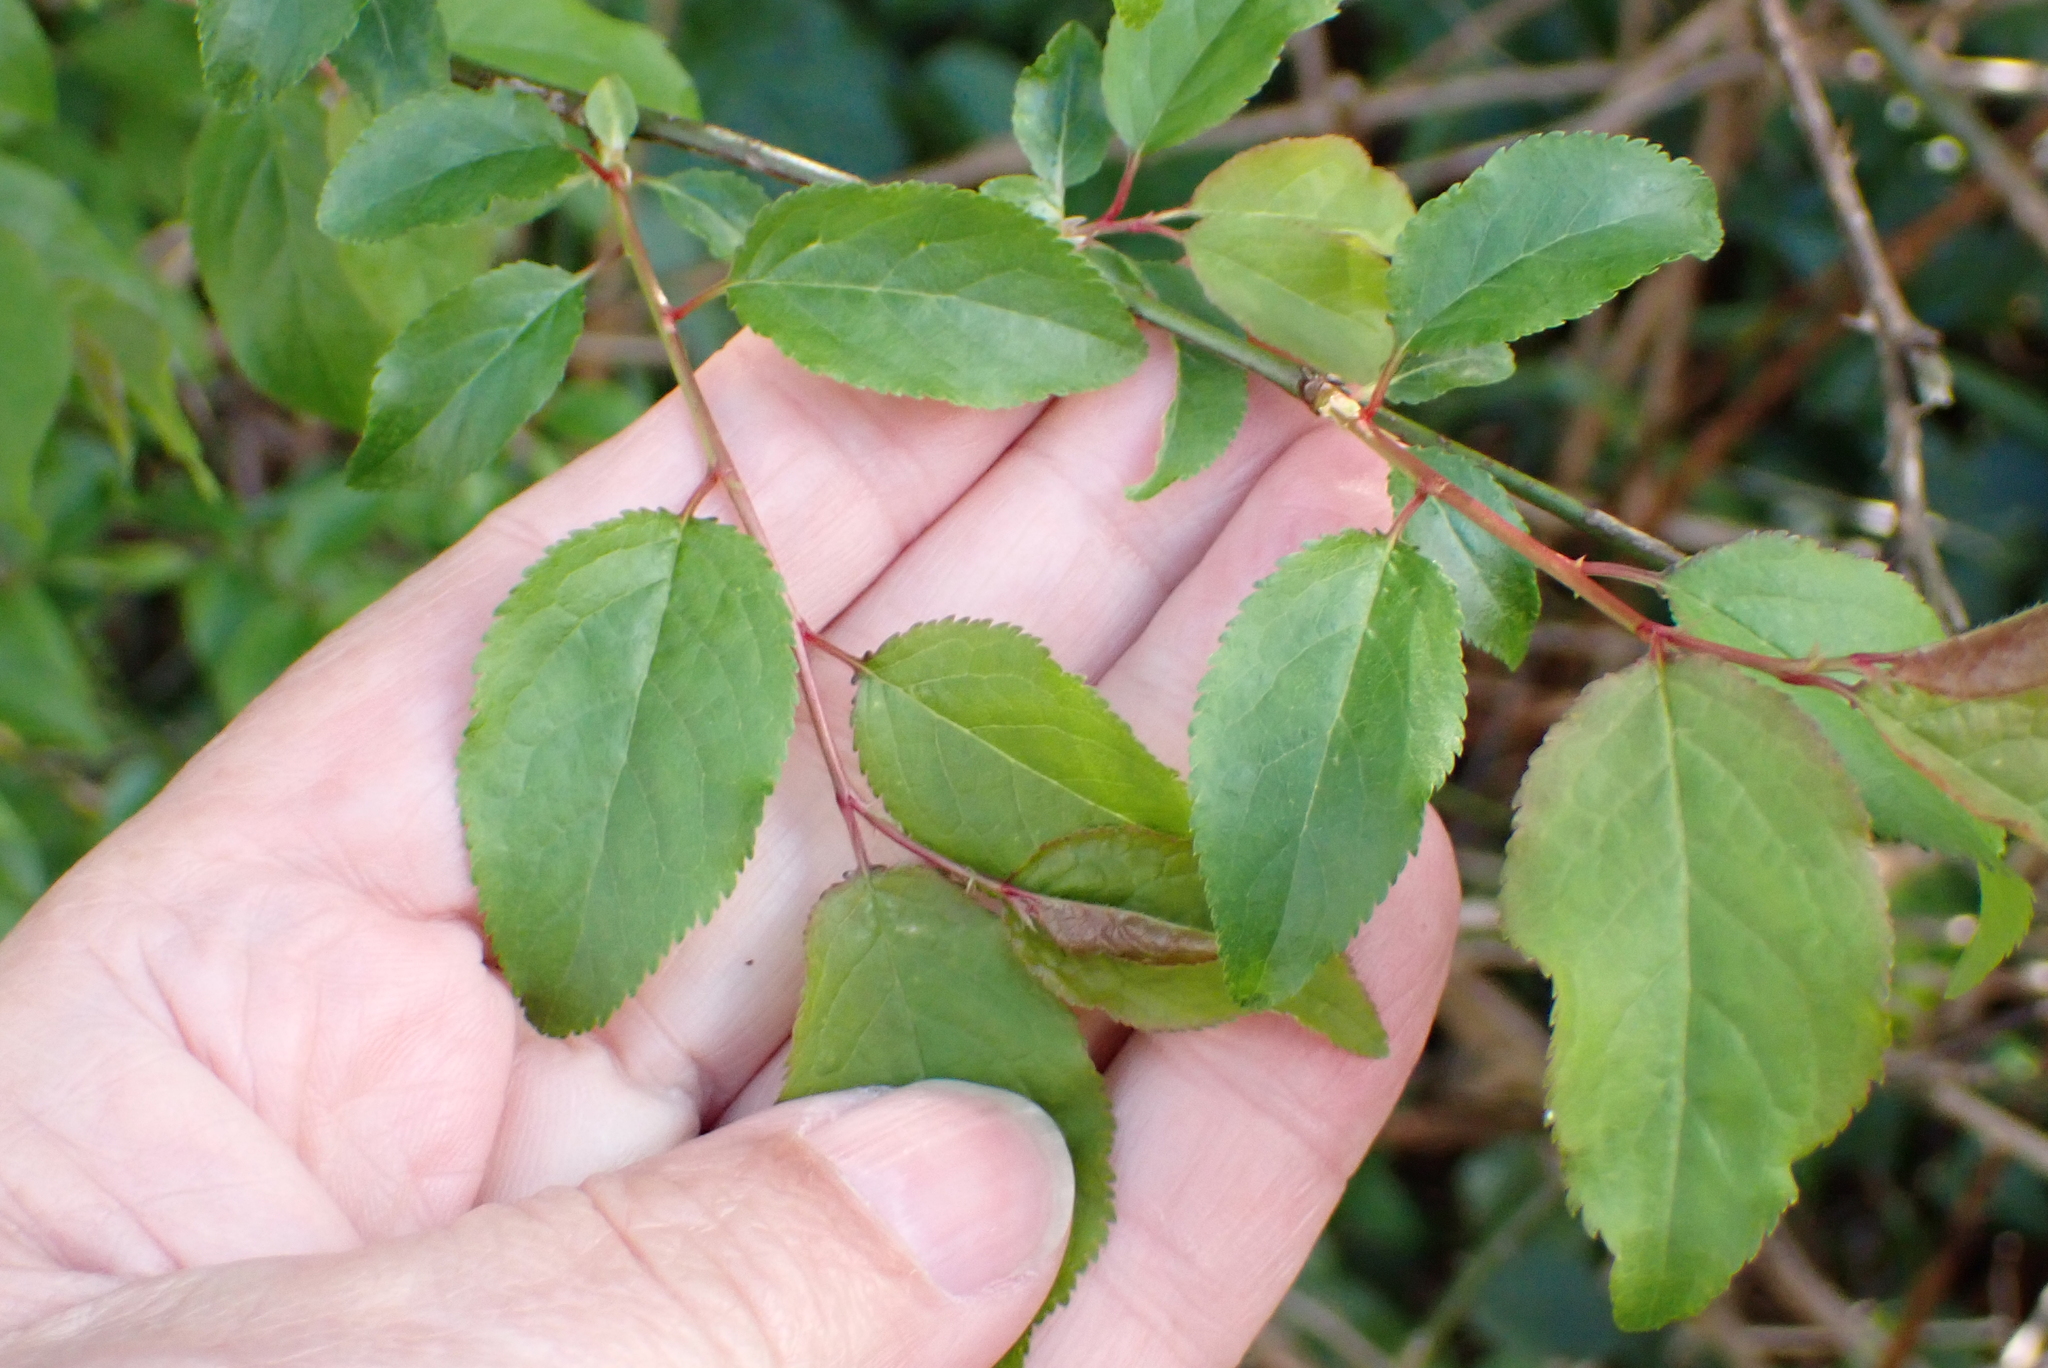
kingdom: Plantae
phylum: Tracheophyta
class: Magnoliopsida
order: Rosales
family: Rosaceae
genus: Prunus
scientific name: Prunus cerasifera
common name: Cherry plum
